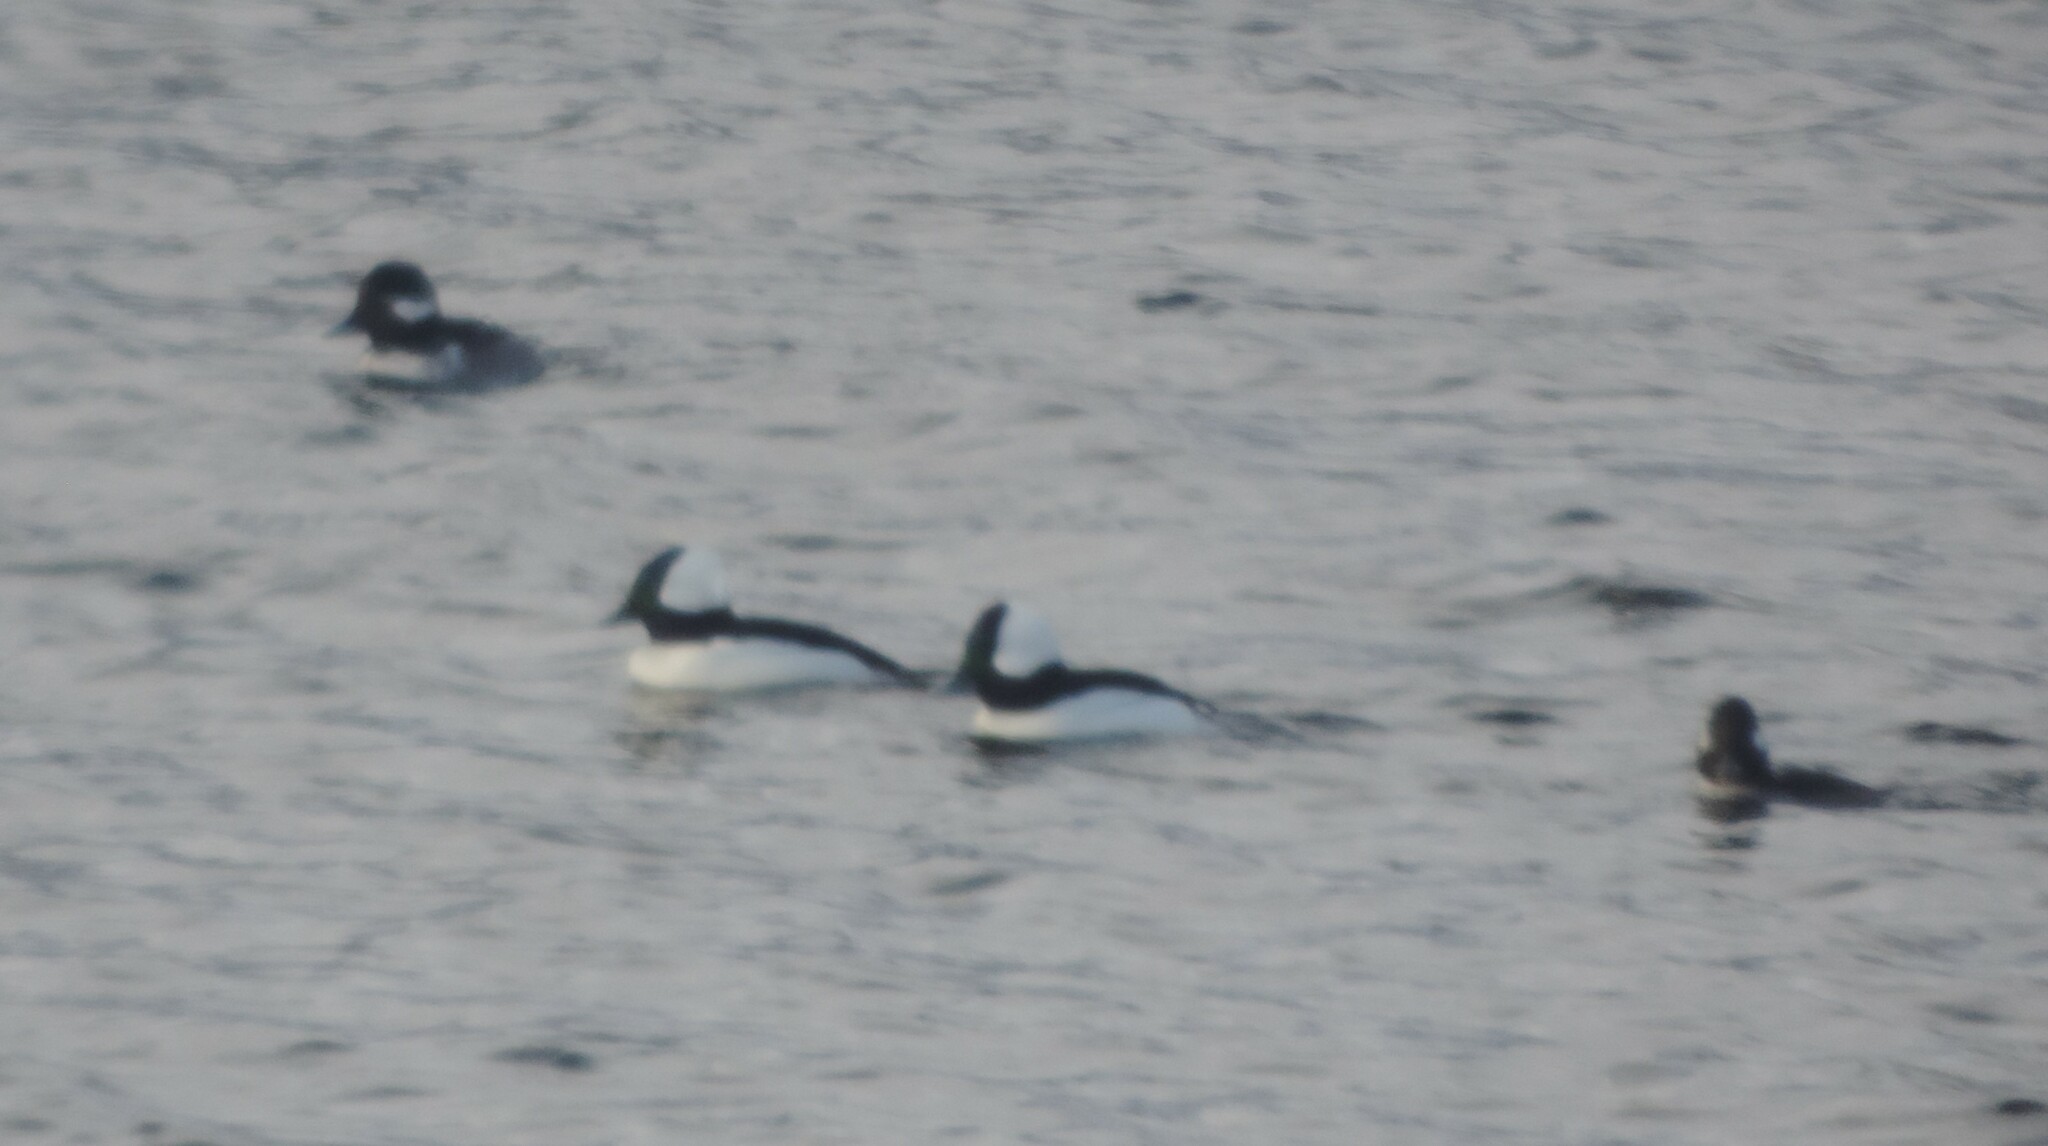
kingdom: Animalia
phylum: Chordata
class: Aves
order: Anseriformes
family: Anatidae
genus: Bucephala
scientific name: Bucephala albeola
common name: Bufflehead
